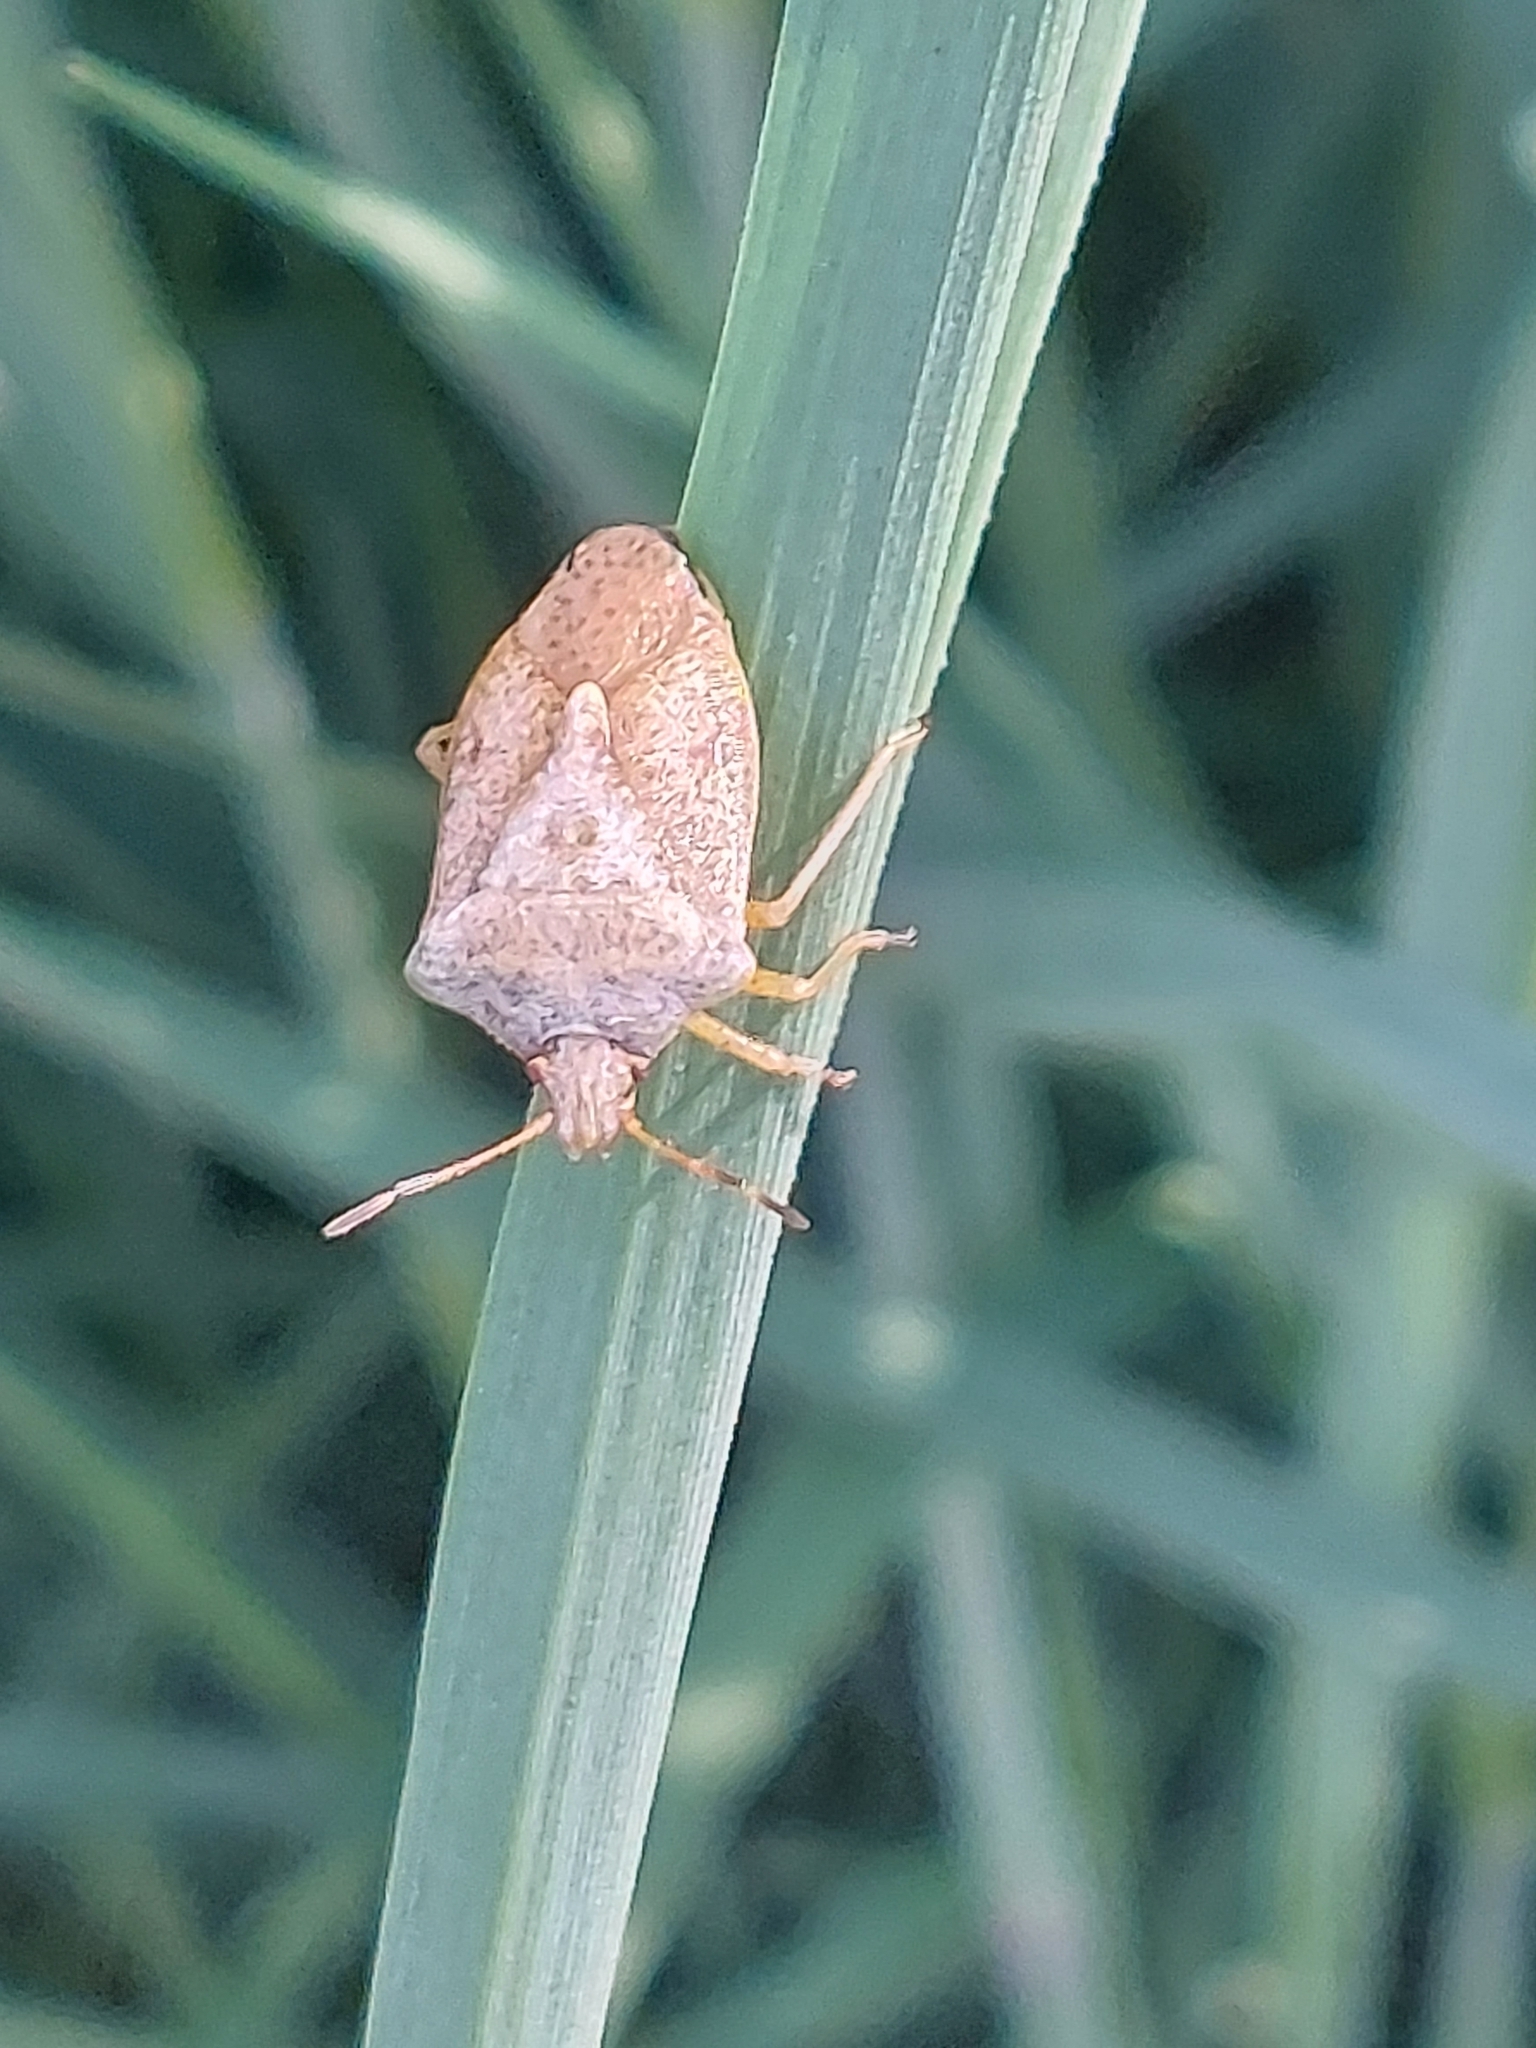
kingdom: Animalia
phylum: Arthropoda
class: Insecta
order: Hemiptera
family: Pentatomidae
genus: Euschistus
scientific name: Euschistus servus
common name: Brown stink bug
